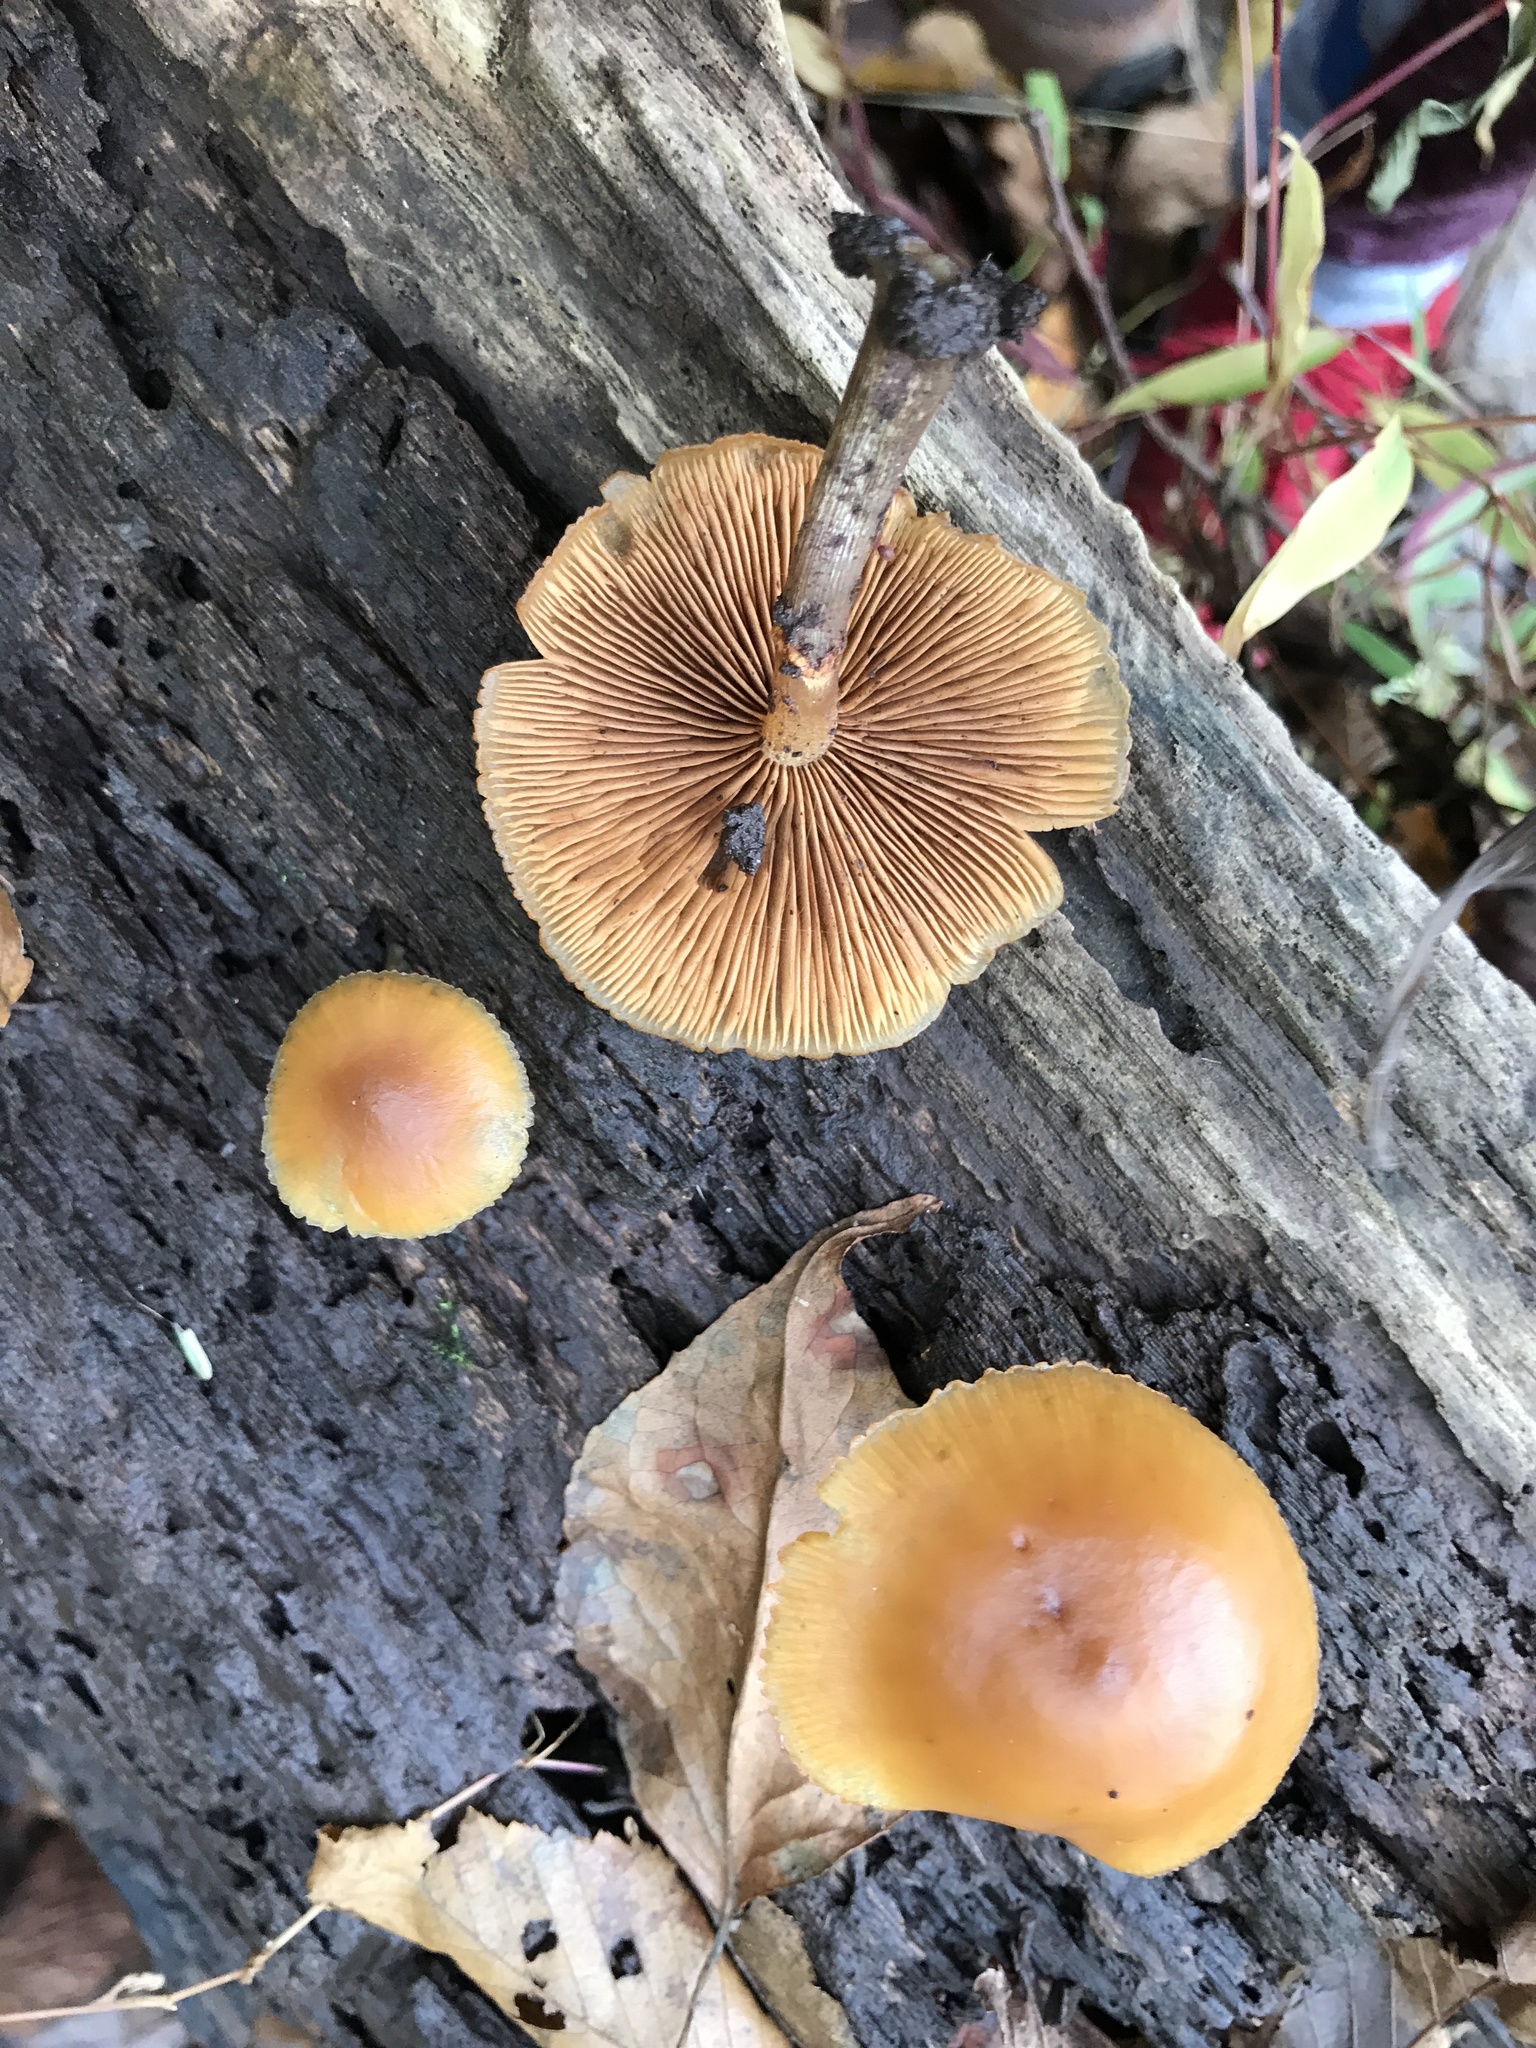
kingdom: Fungi
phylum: Basidiomycota
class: Agaricomycetes
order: Agaricales
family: Hymenogastraceae
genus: Galerina
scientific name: Galerina marginata
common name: Funeral bell
